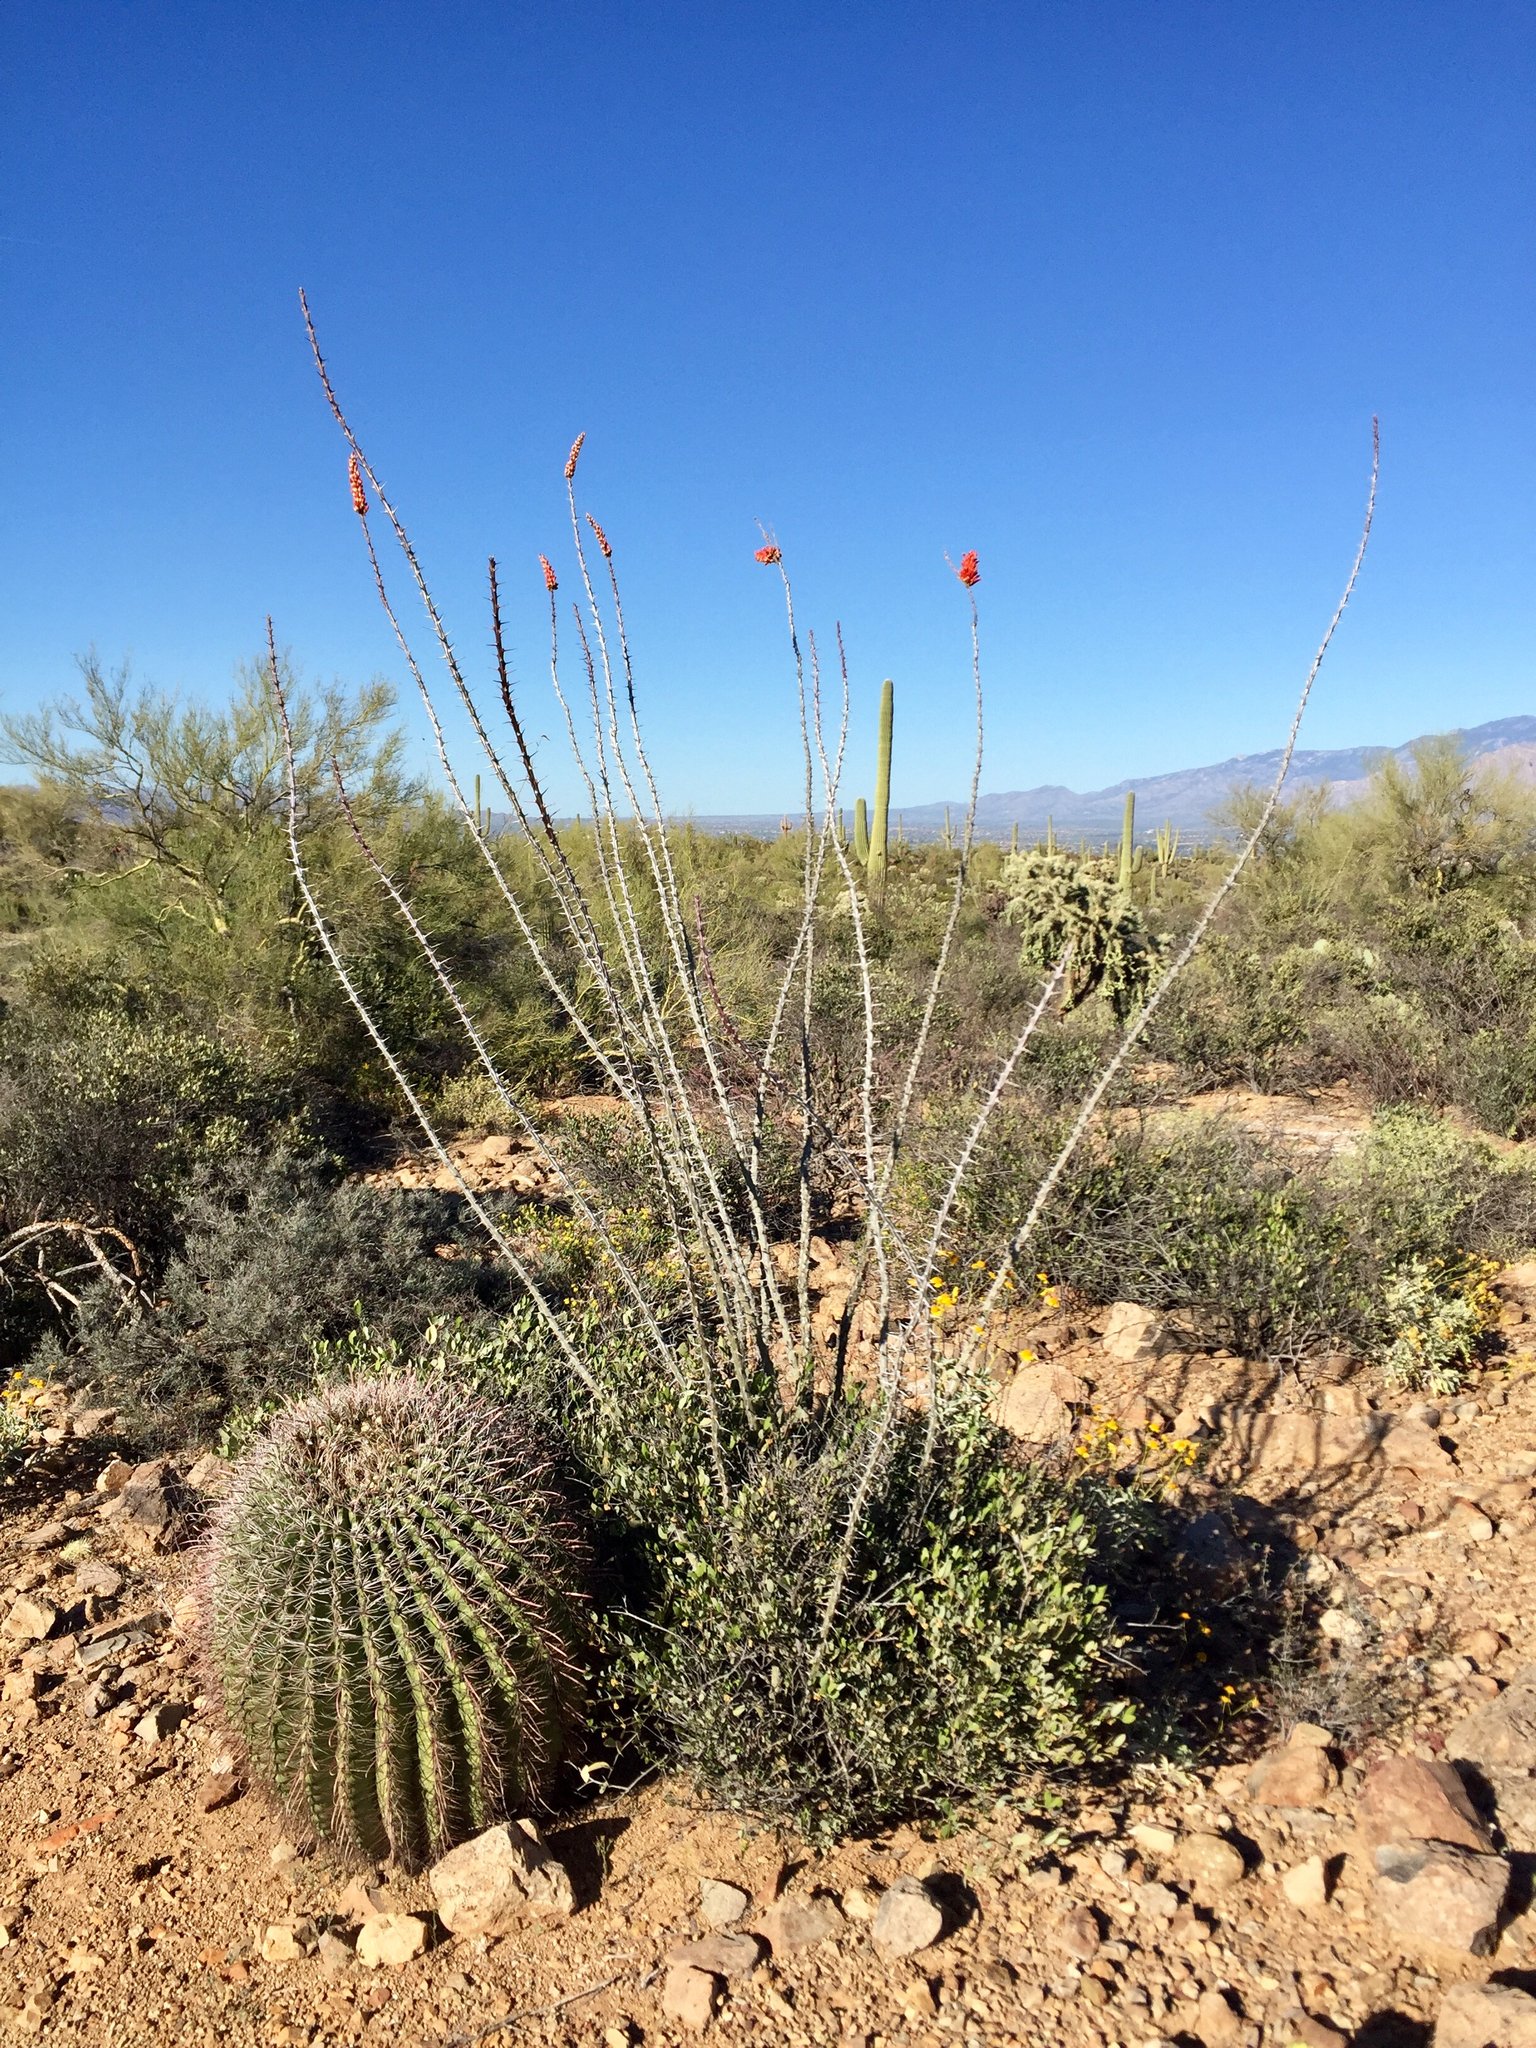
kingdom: Plantae
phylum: Tracheophyta
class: Magnoliopsida
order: Caryophyllales
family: Cactaceae
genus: Ferocactus
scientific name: Ferocactus wislizeni
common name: Candy barrel cactus
